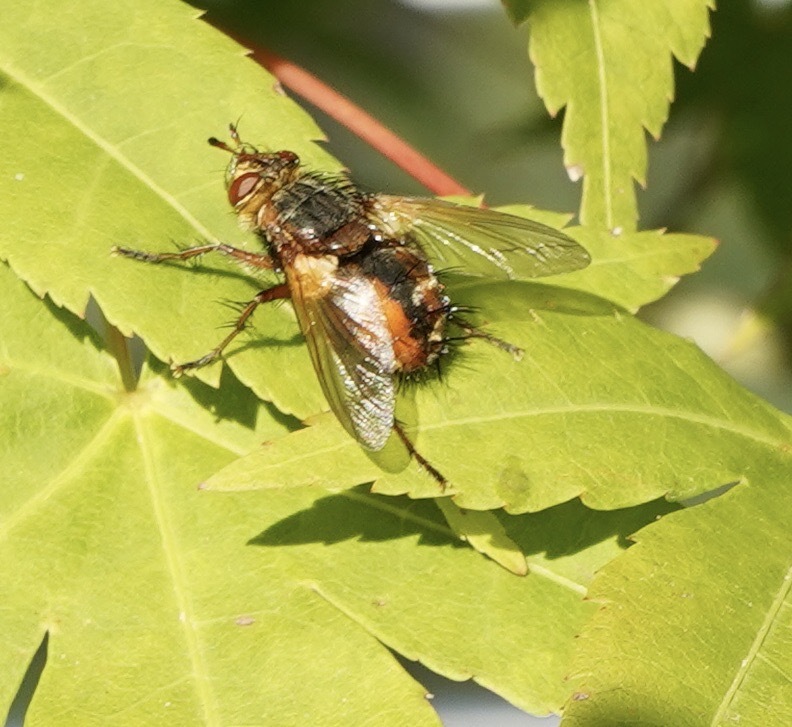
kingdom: Animalia
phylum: Arthropoda
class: Insecta
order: Diptera
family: Tachinidae
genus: Tachina
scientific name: Tachina fera
